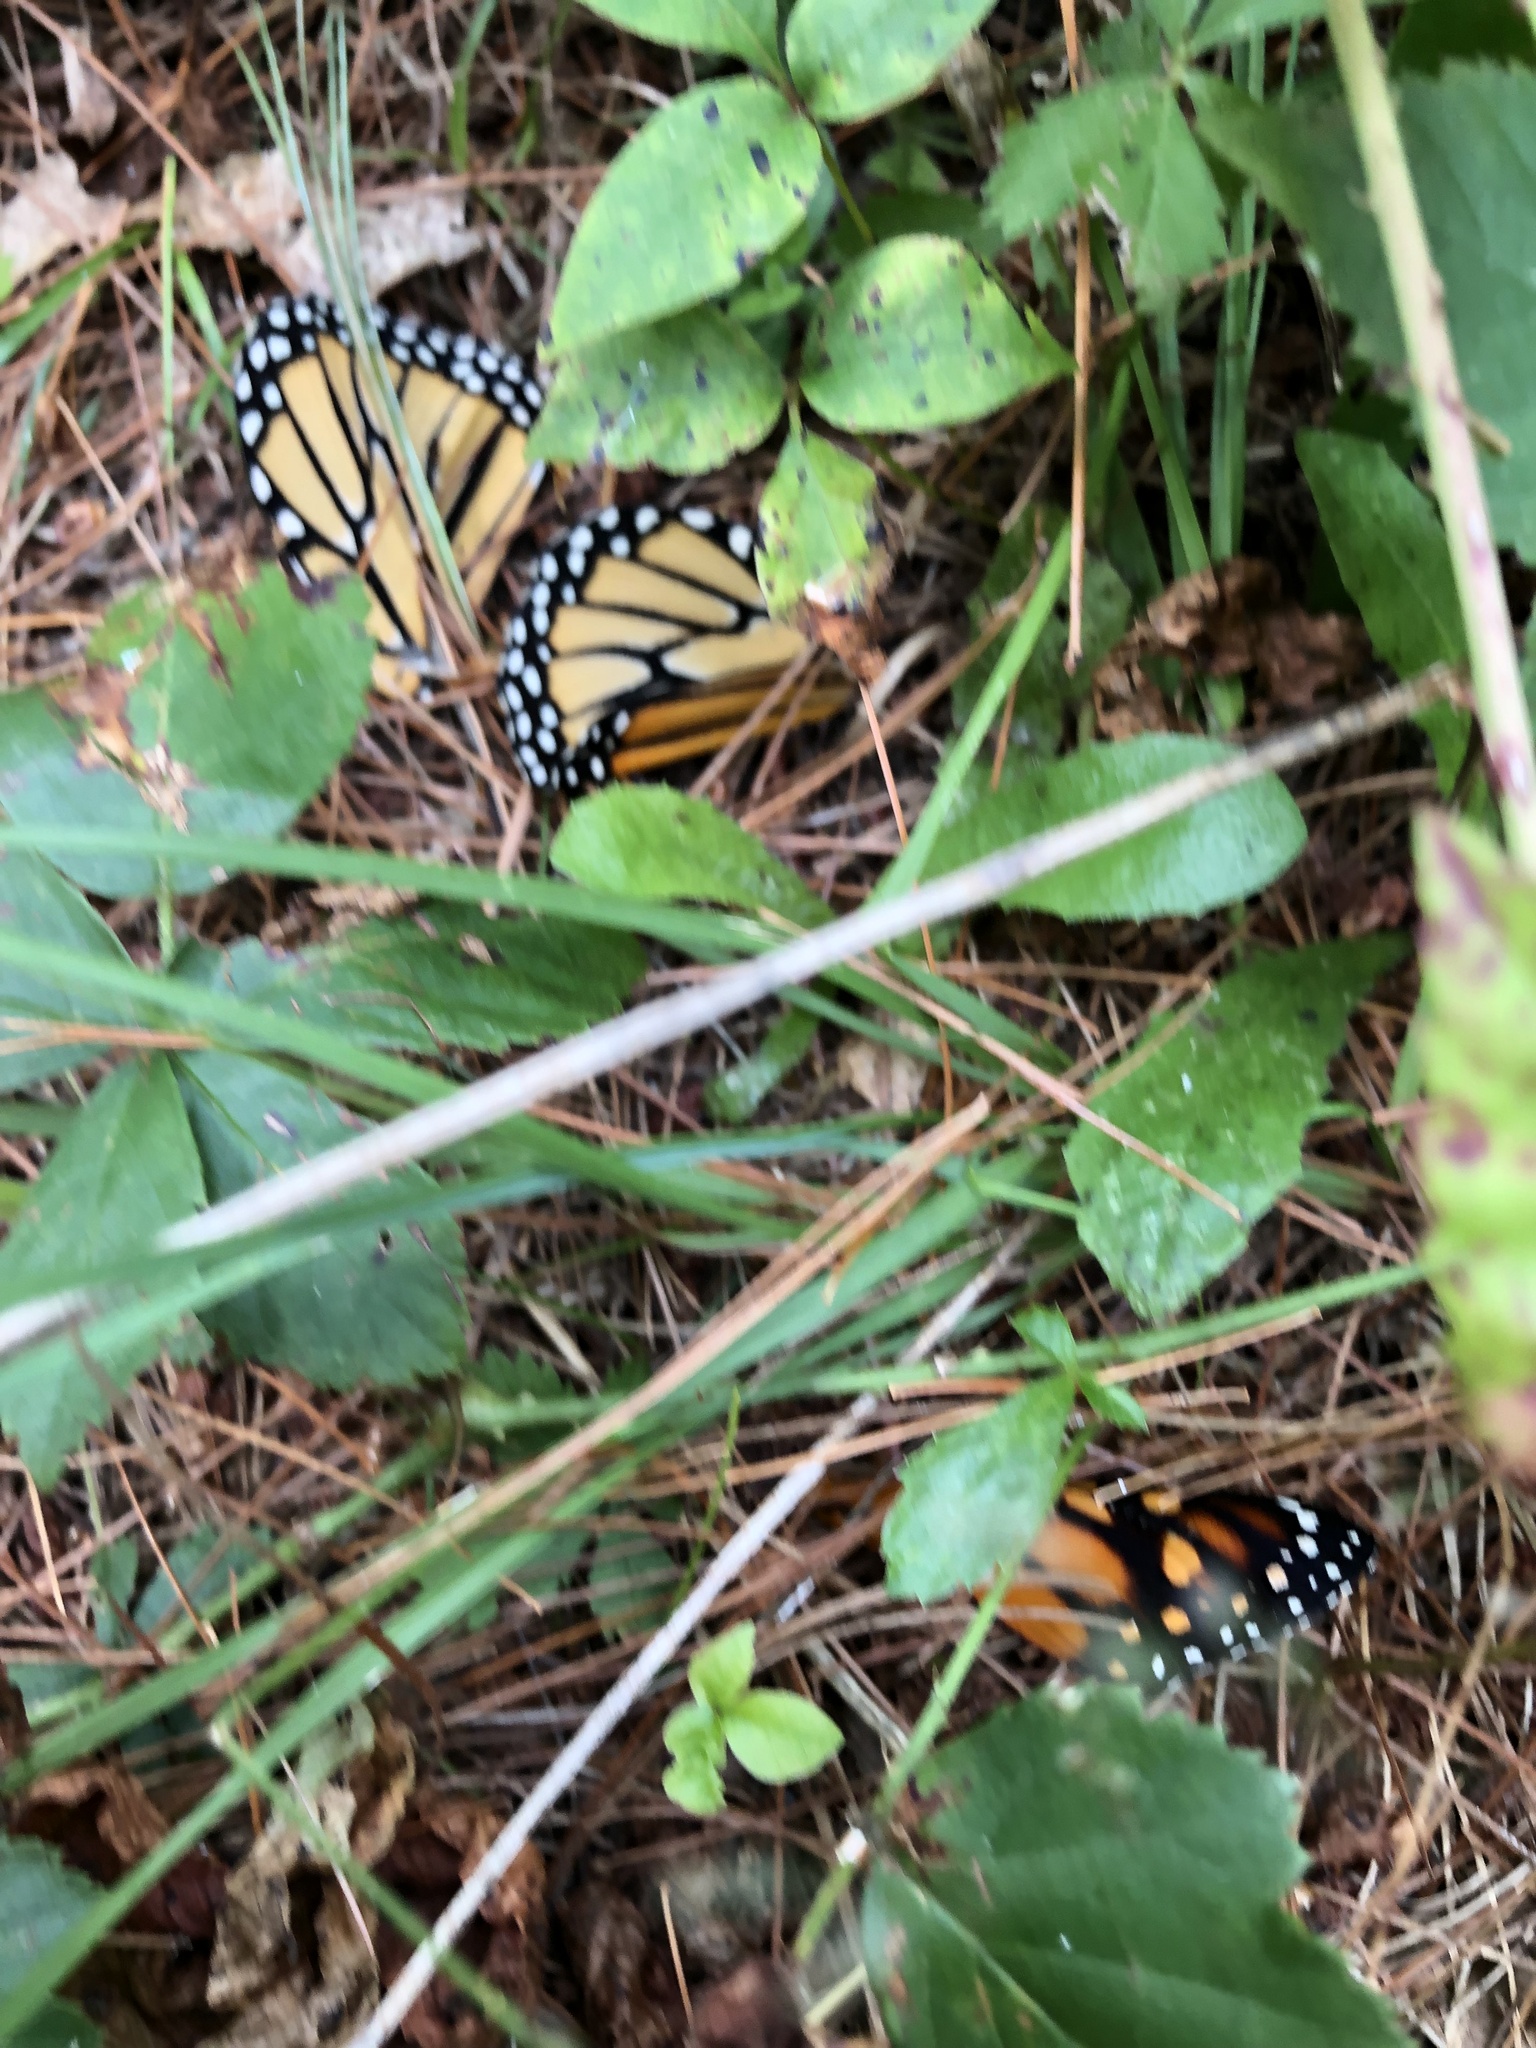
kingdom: Animalia
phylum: Arthropoda
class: Insecta
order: Lepidoptera
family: Nymphalidae
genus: Danaus
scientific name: Danaus plexippus
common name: Monarch
